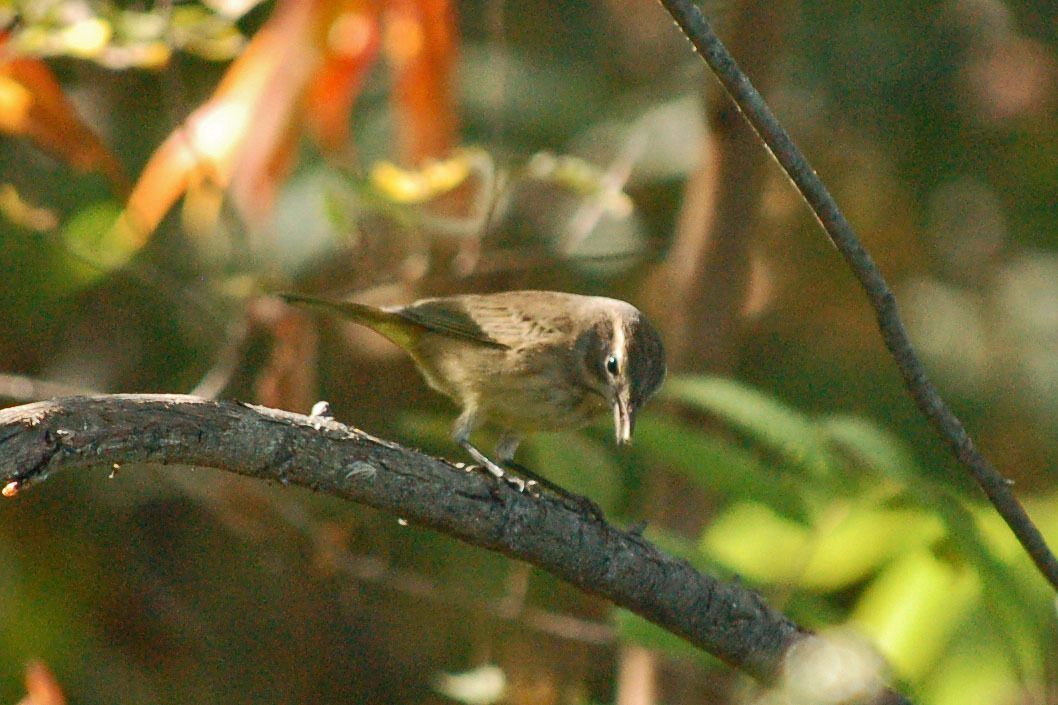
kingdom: Animalia
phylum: Chordata
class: Aves
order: Passeriformes
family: Parulidae
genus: Setophaga
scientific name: Setophaga palmarum
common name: Palm warbler
